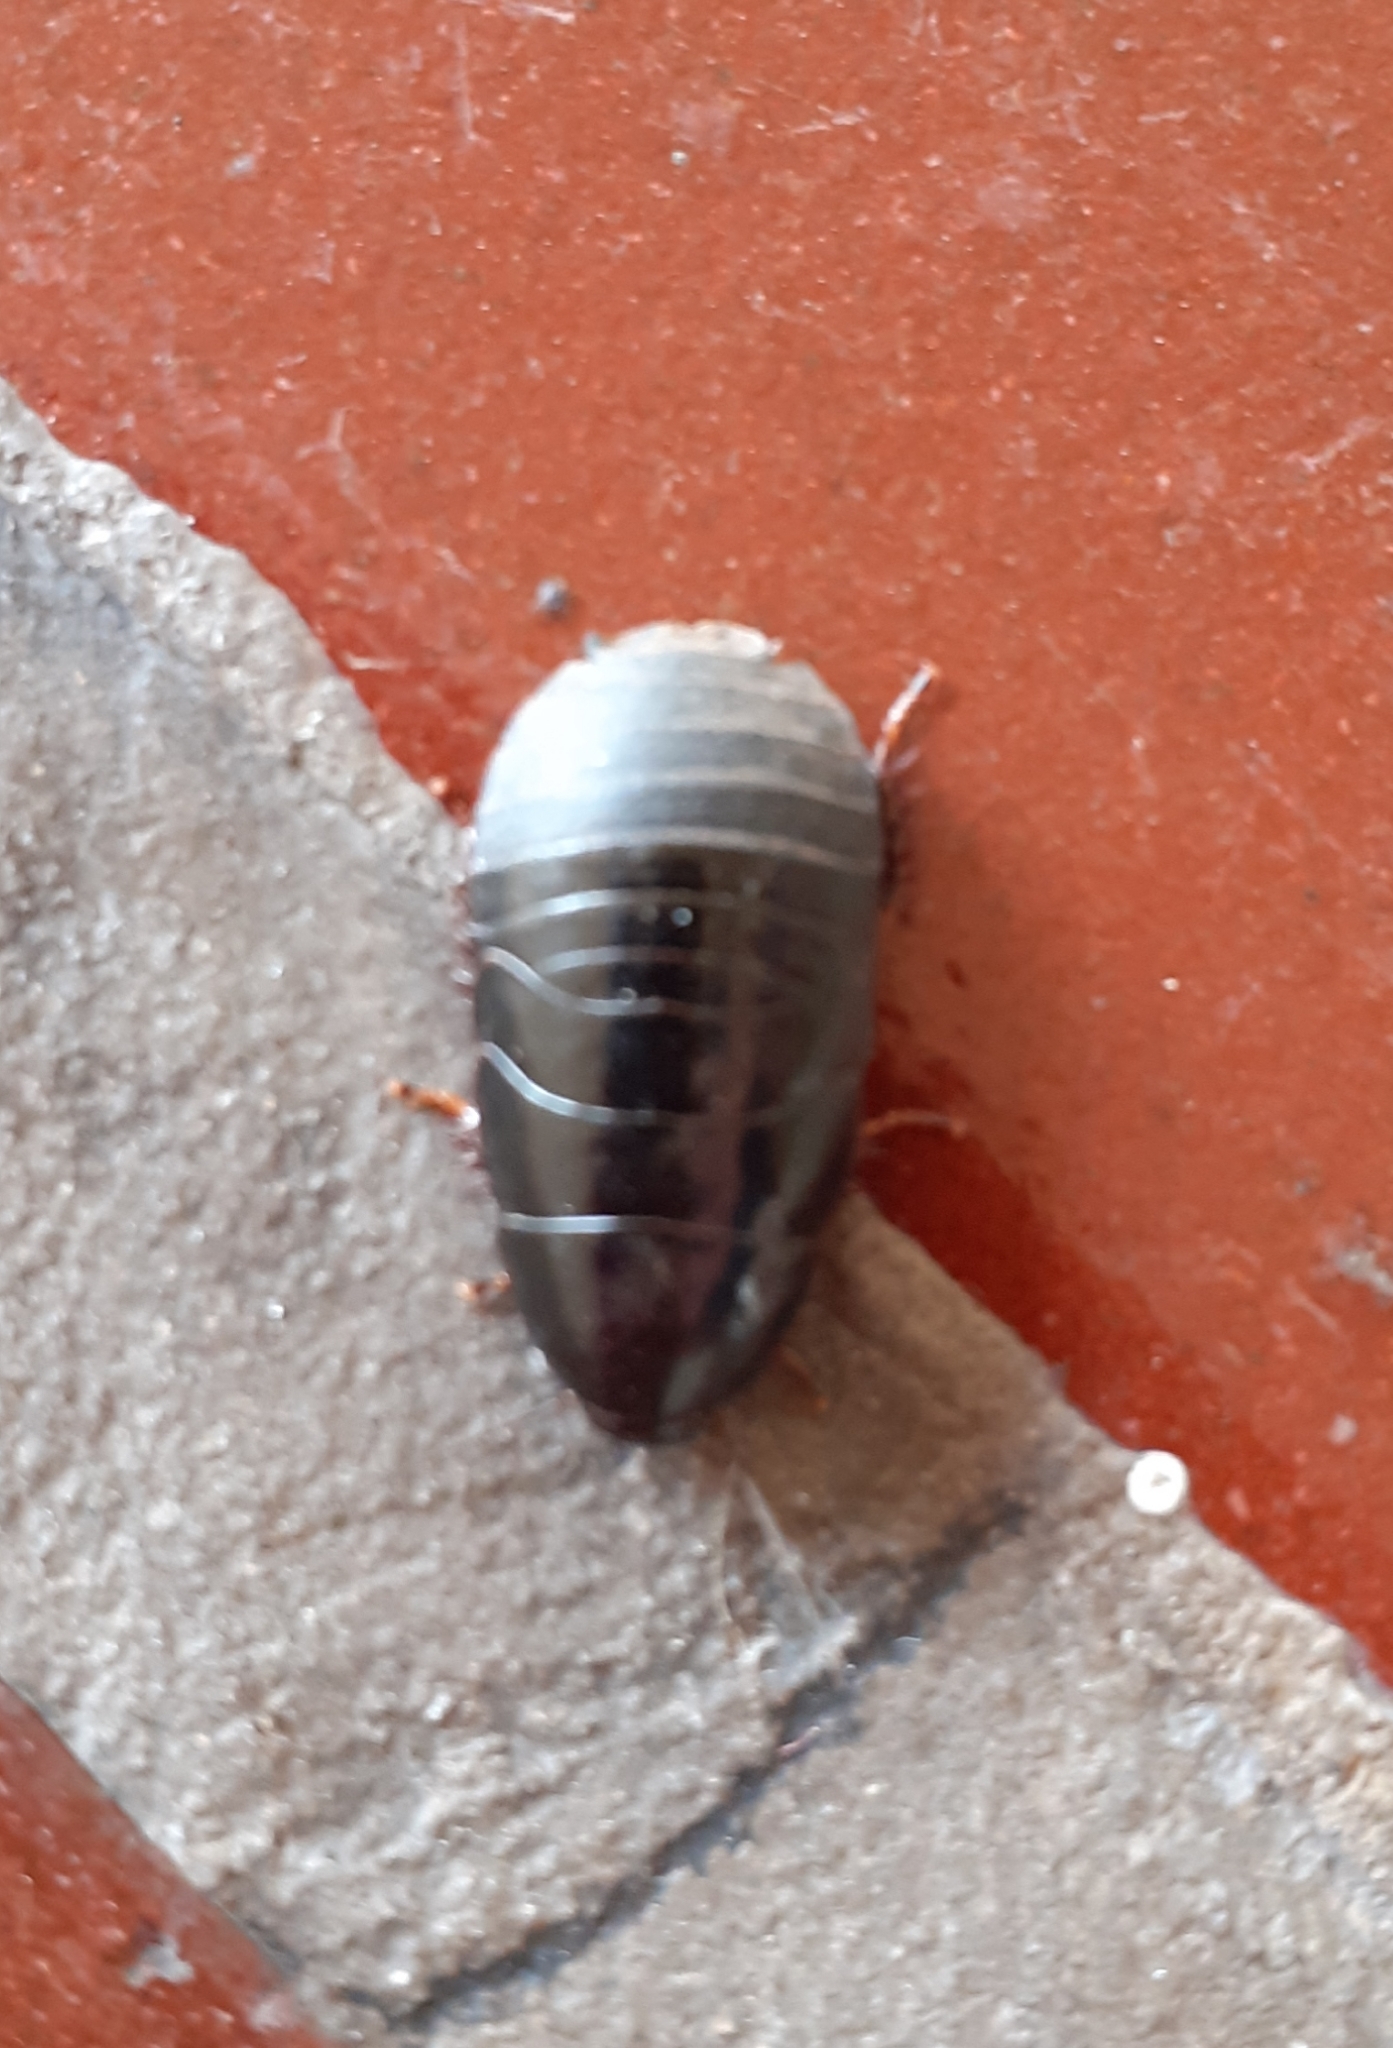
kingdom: Animalia
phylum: Arthropoda
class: Insecta
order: Blattodea
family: Blaberidae
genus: Pycnoscelus
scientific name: Pycnoscelus surinamensis
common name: Surinam cockroach
